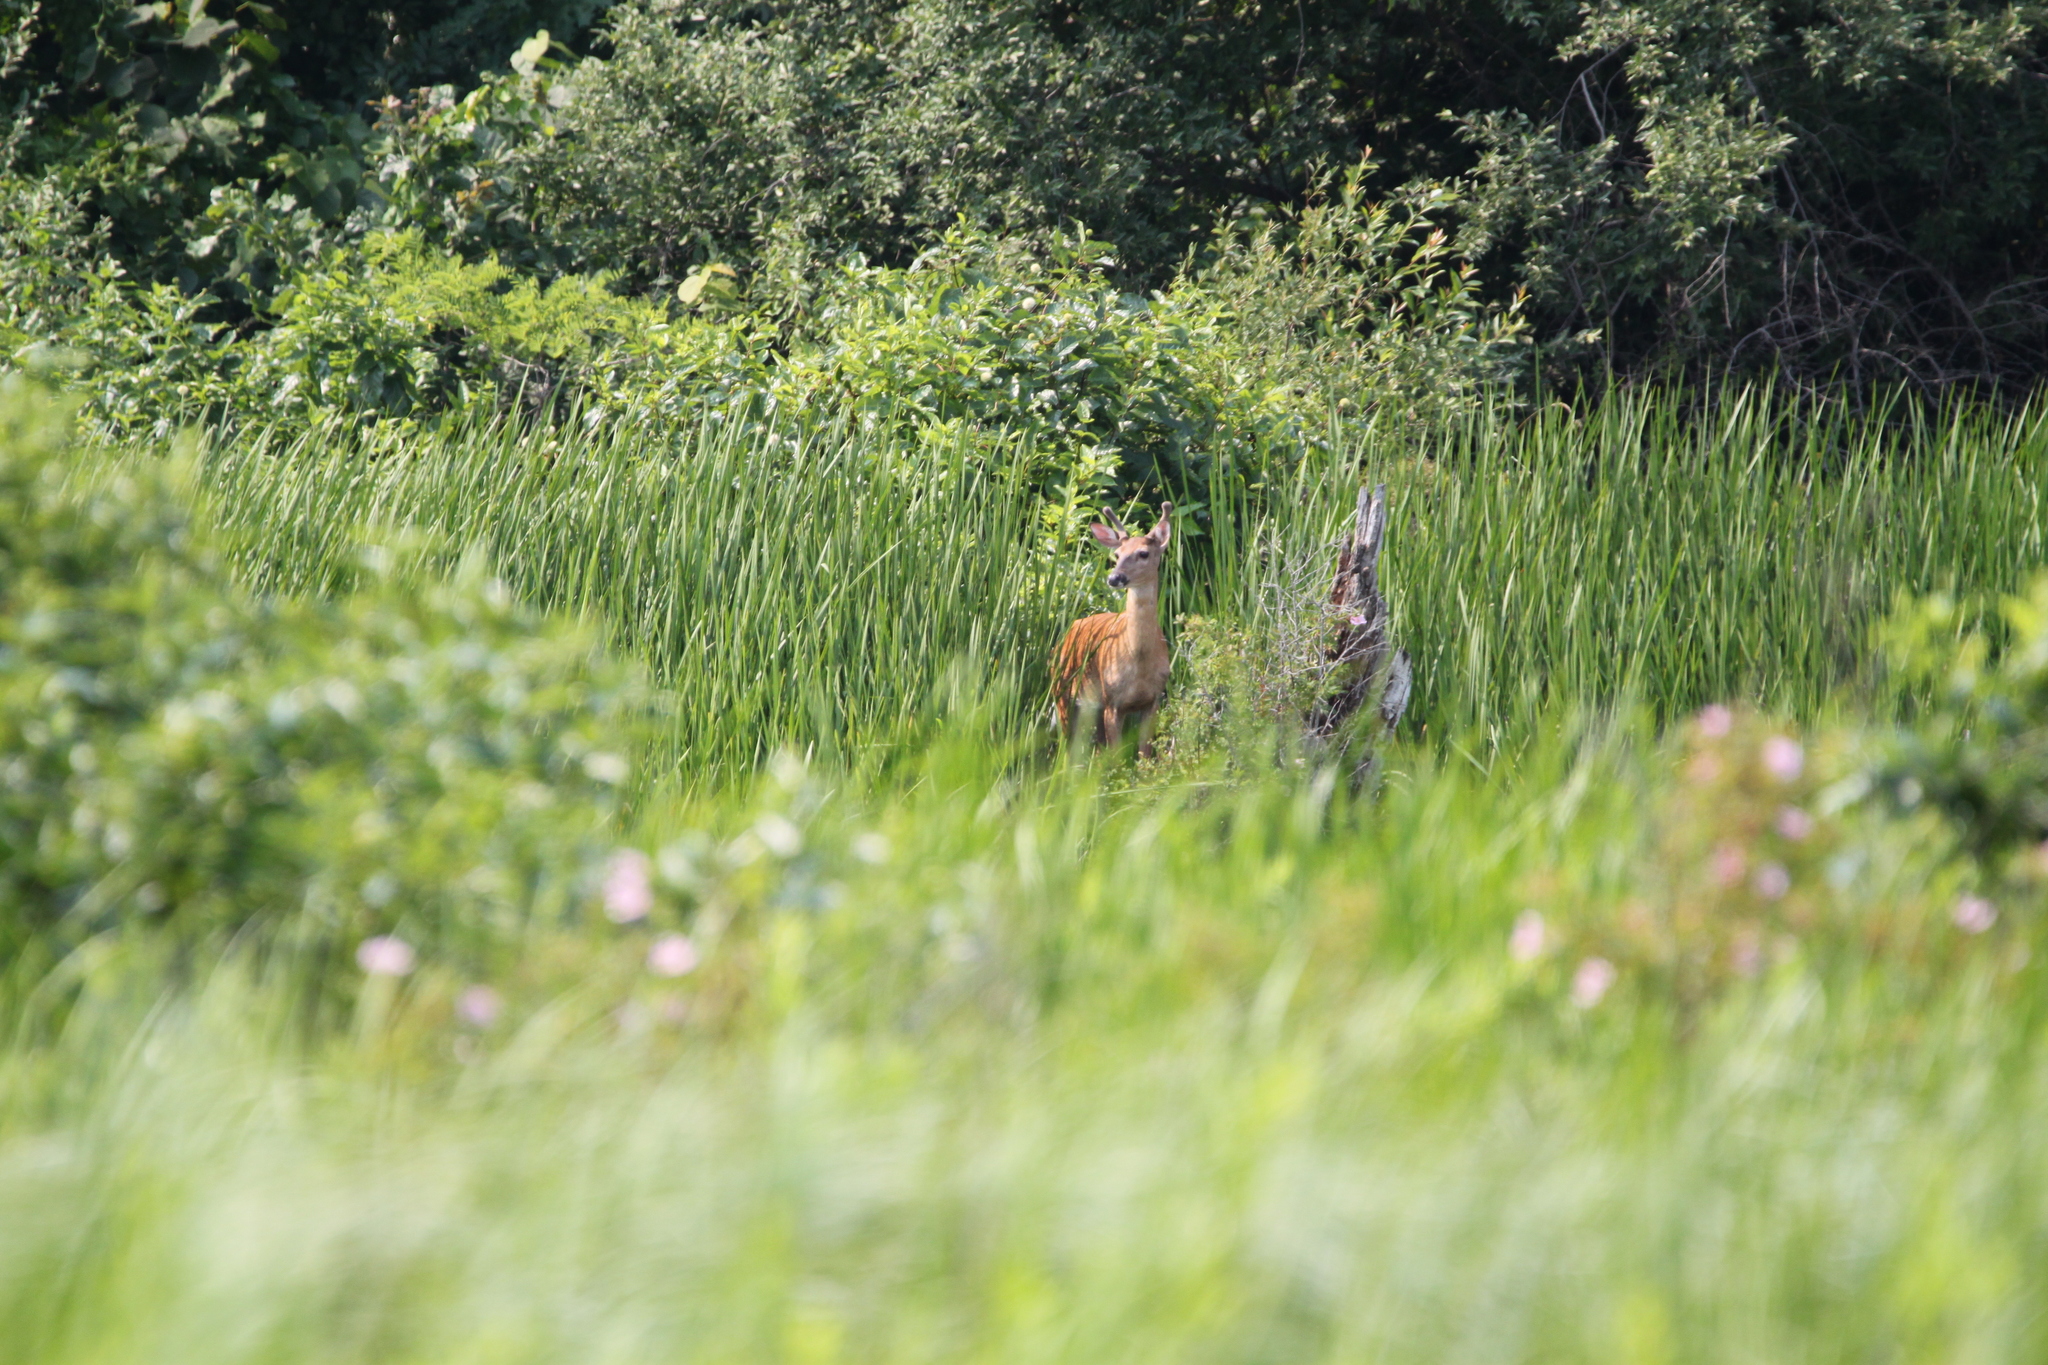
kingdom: Animalia
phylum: Chordata
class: Mammalia
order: Artiodactyla
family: Cervidae
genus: Odocoileus
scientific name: Odocoileus virginianus
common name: White-tailed deer
